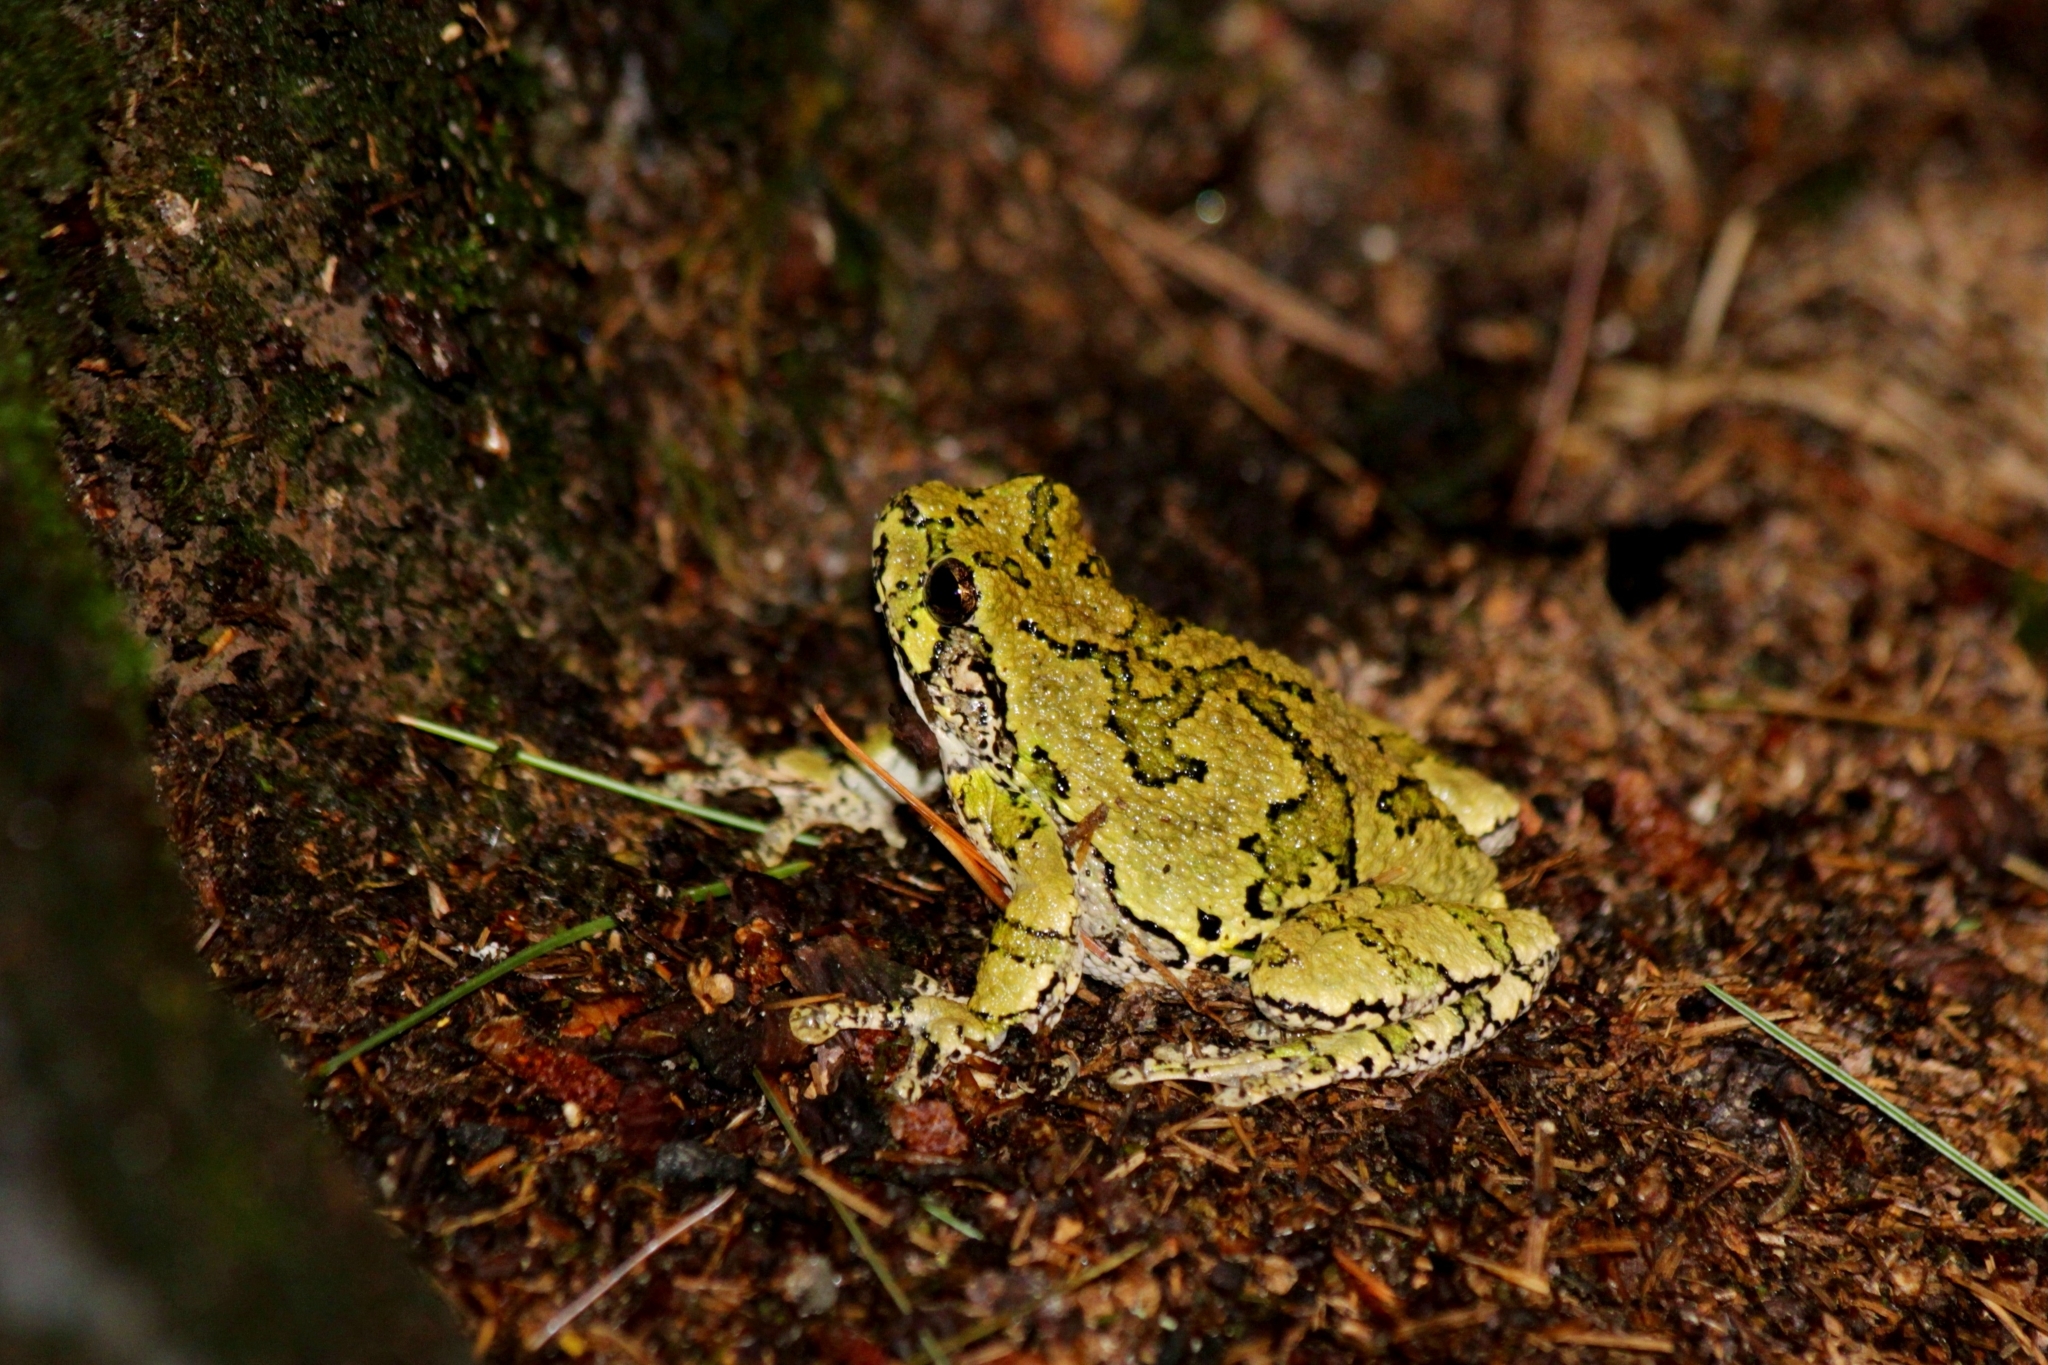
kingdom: Animalia
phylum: Chordata
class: Amphibia
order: Anura
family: Hylidae
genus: Dryophytes
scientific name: Dryophytes versicolor
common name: Gray treefrog
